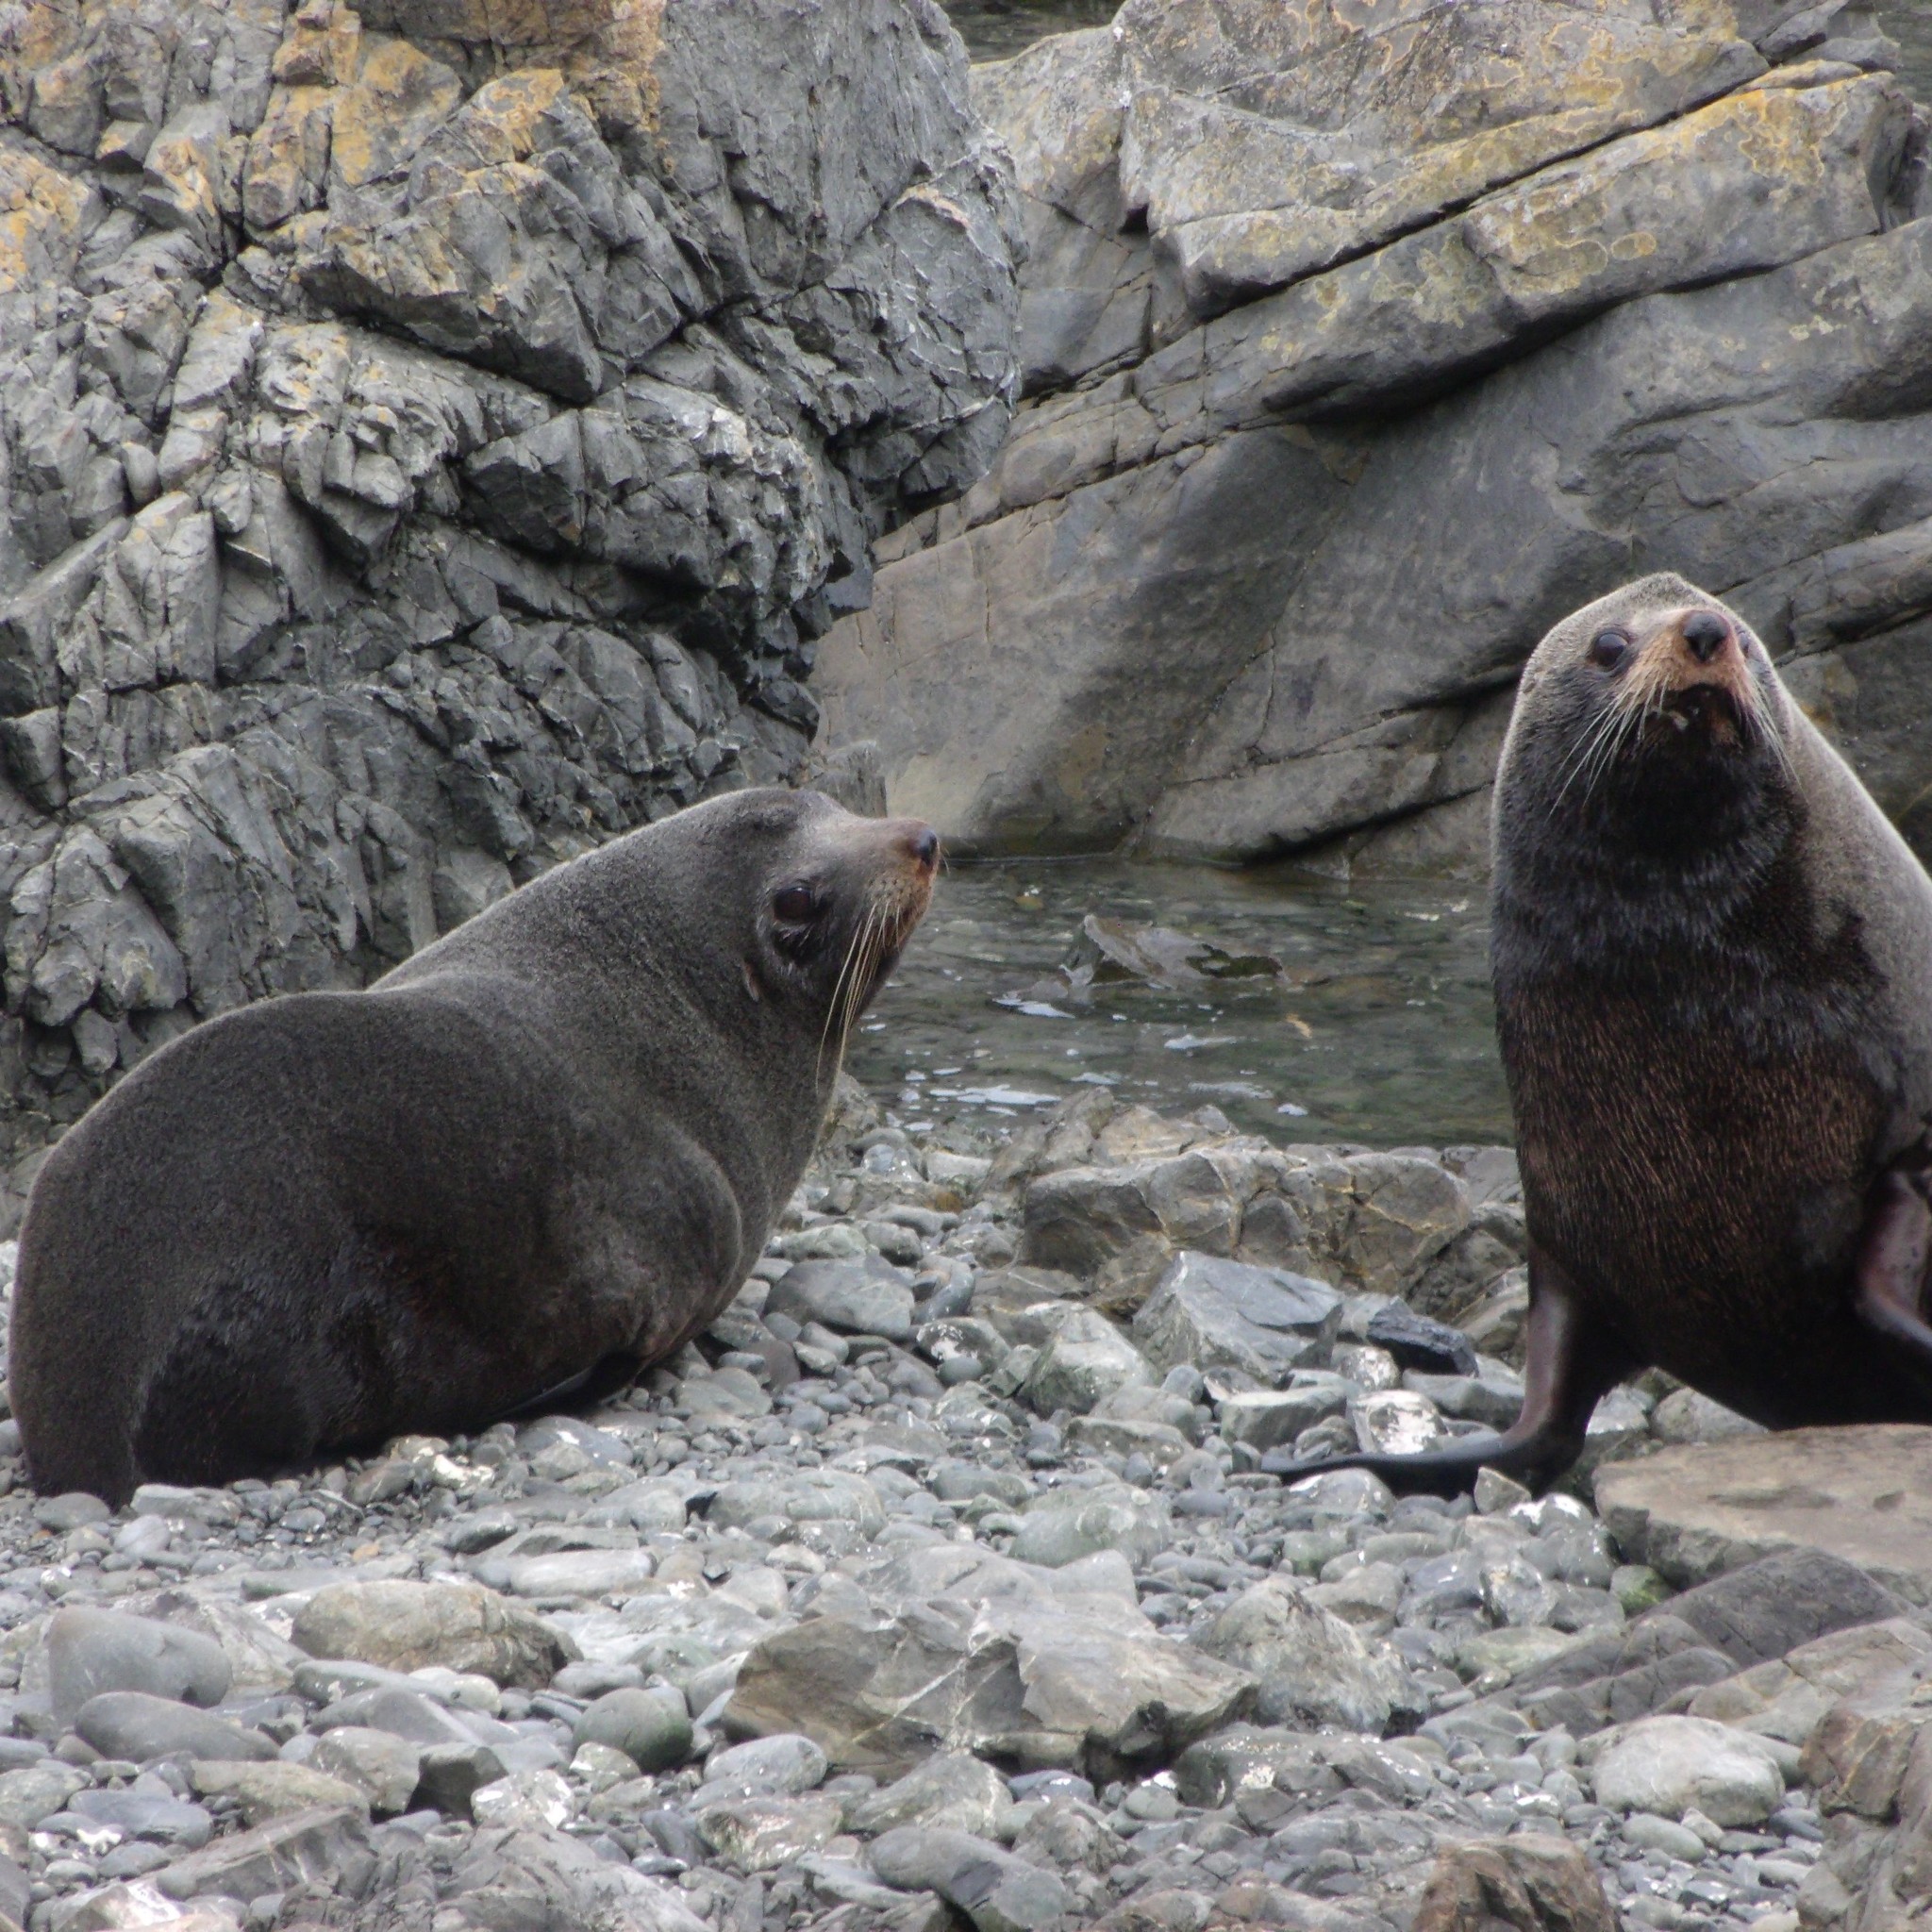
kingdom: Animalia
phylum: Chordata
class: Mammalia
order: Carnivora
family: Otariidae
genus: Arctocephalus
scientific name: Arctocephalus forsteri
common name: New zealand fur seal
